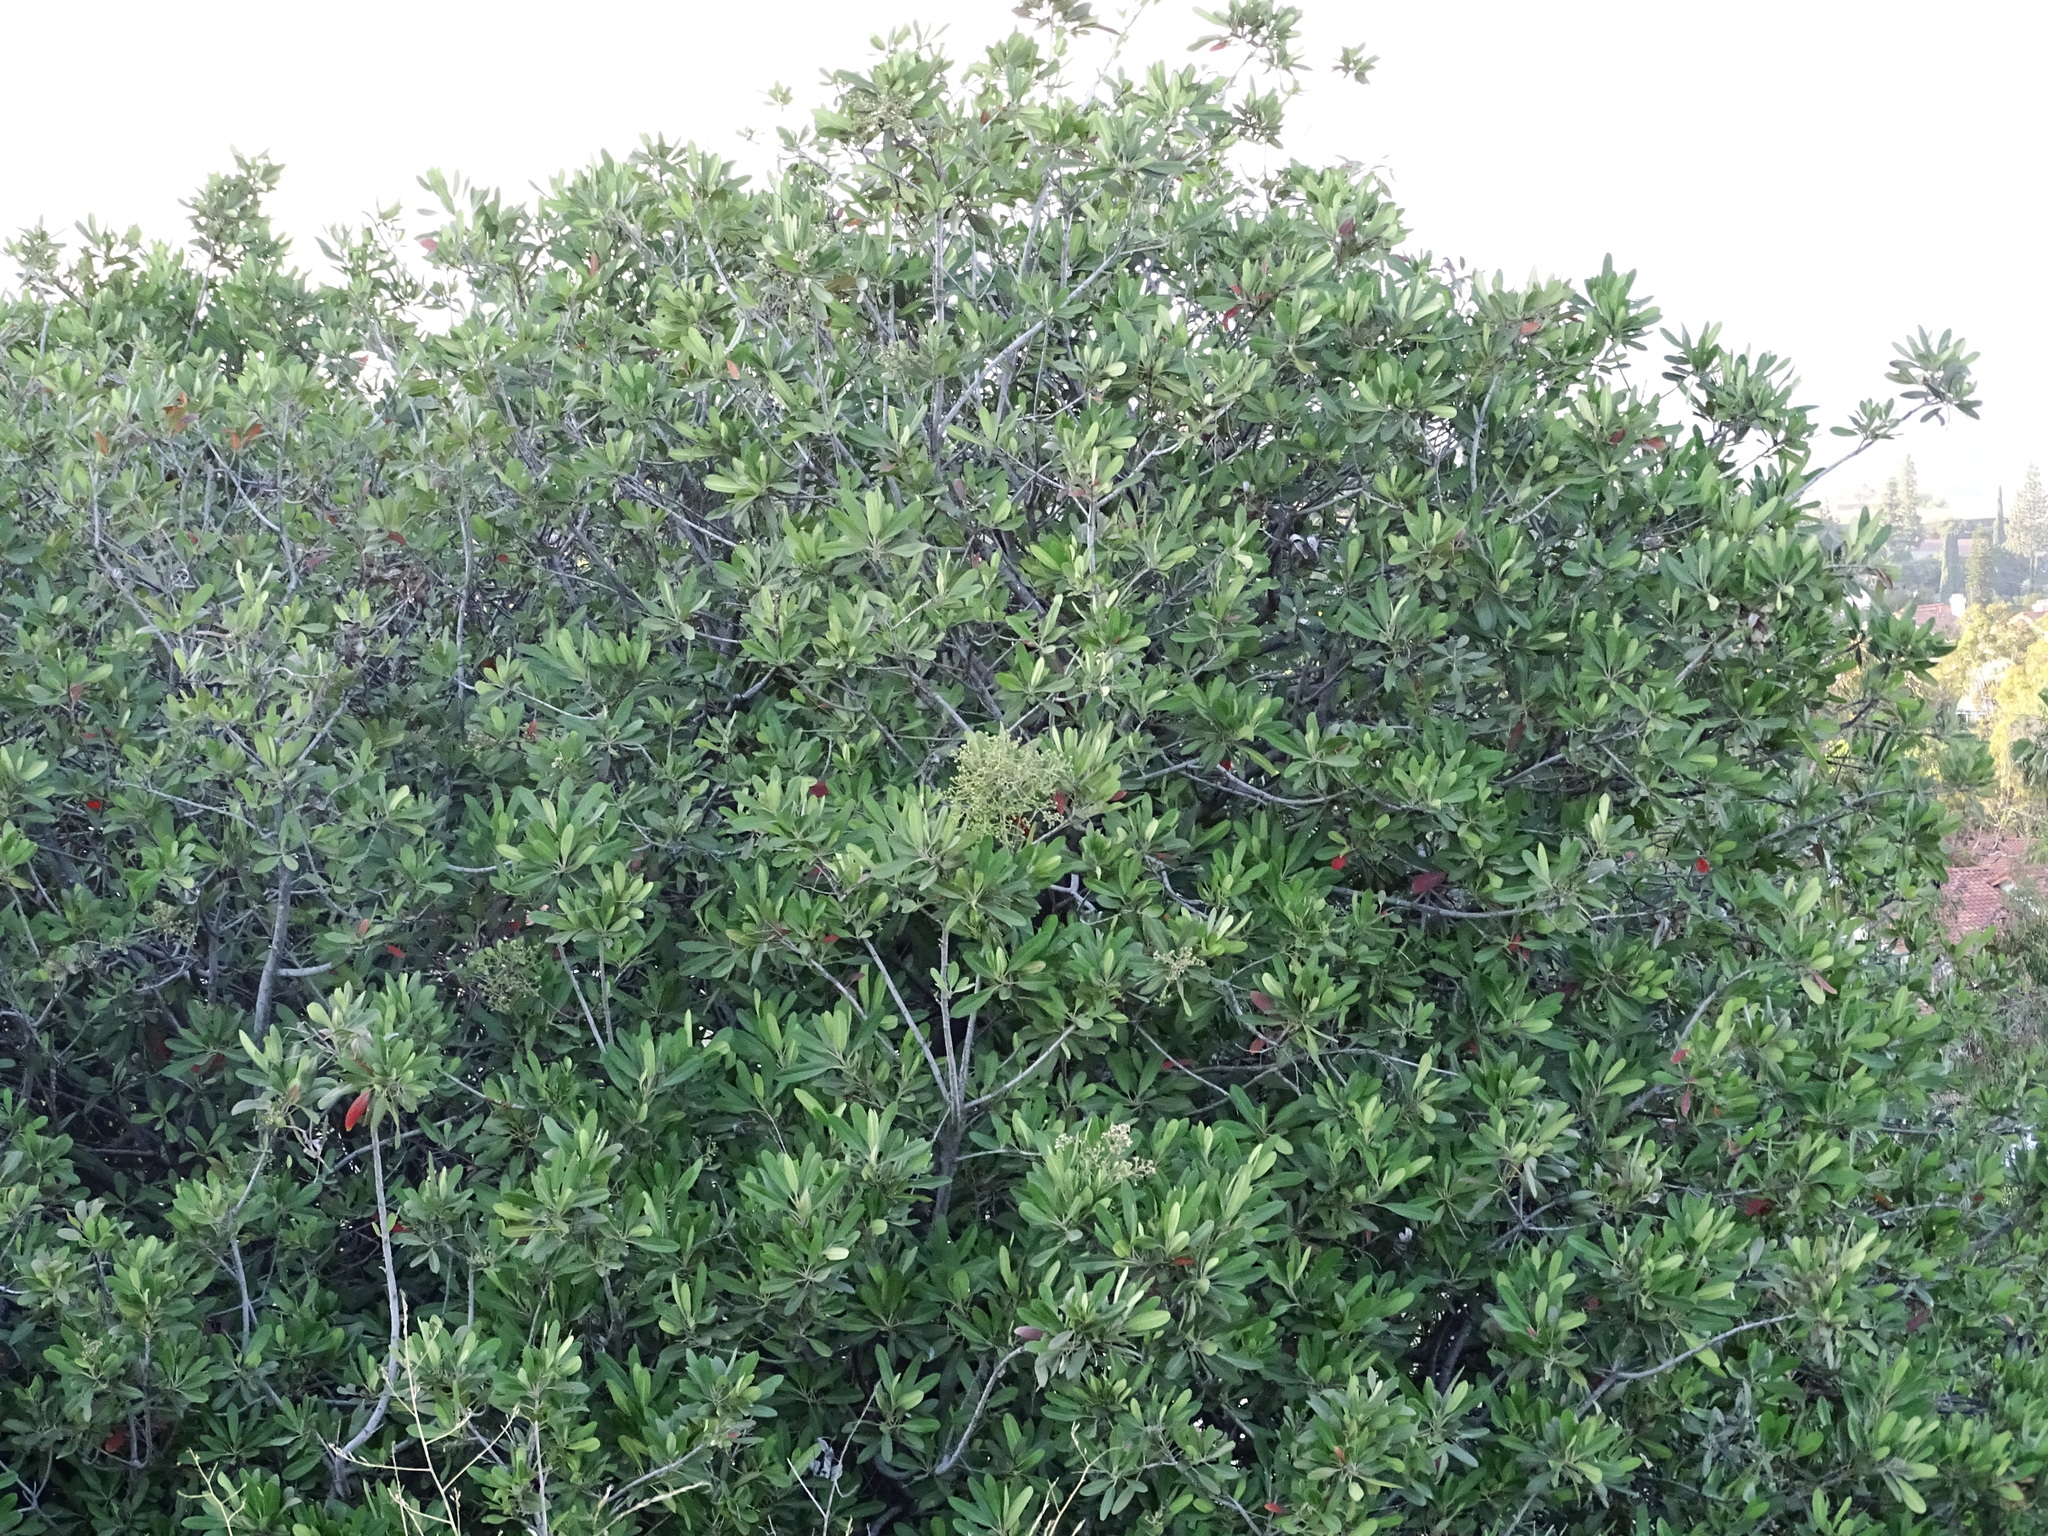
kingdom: Plantae
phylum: Tracheophyta
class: Magnoliopsida
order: Rosales
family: Rosaceae
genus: Heteromeles
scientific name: Heteromeles arbutifolia
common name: California-holly
